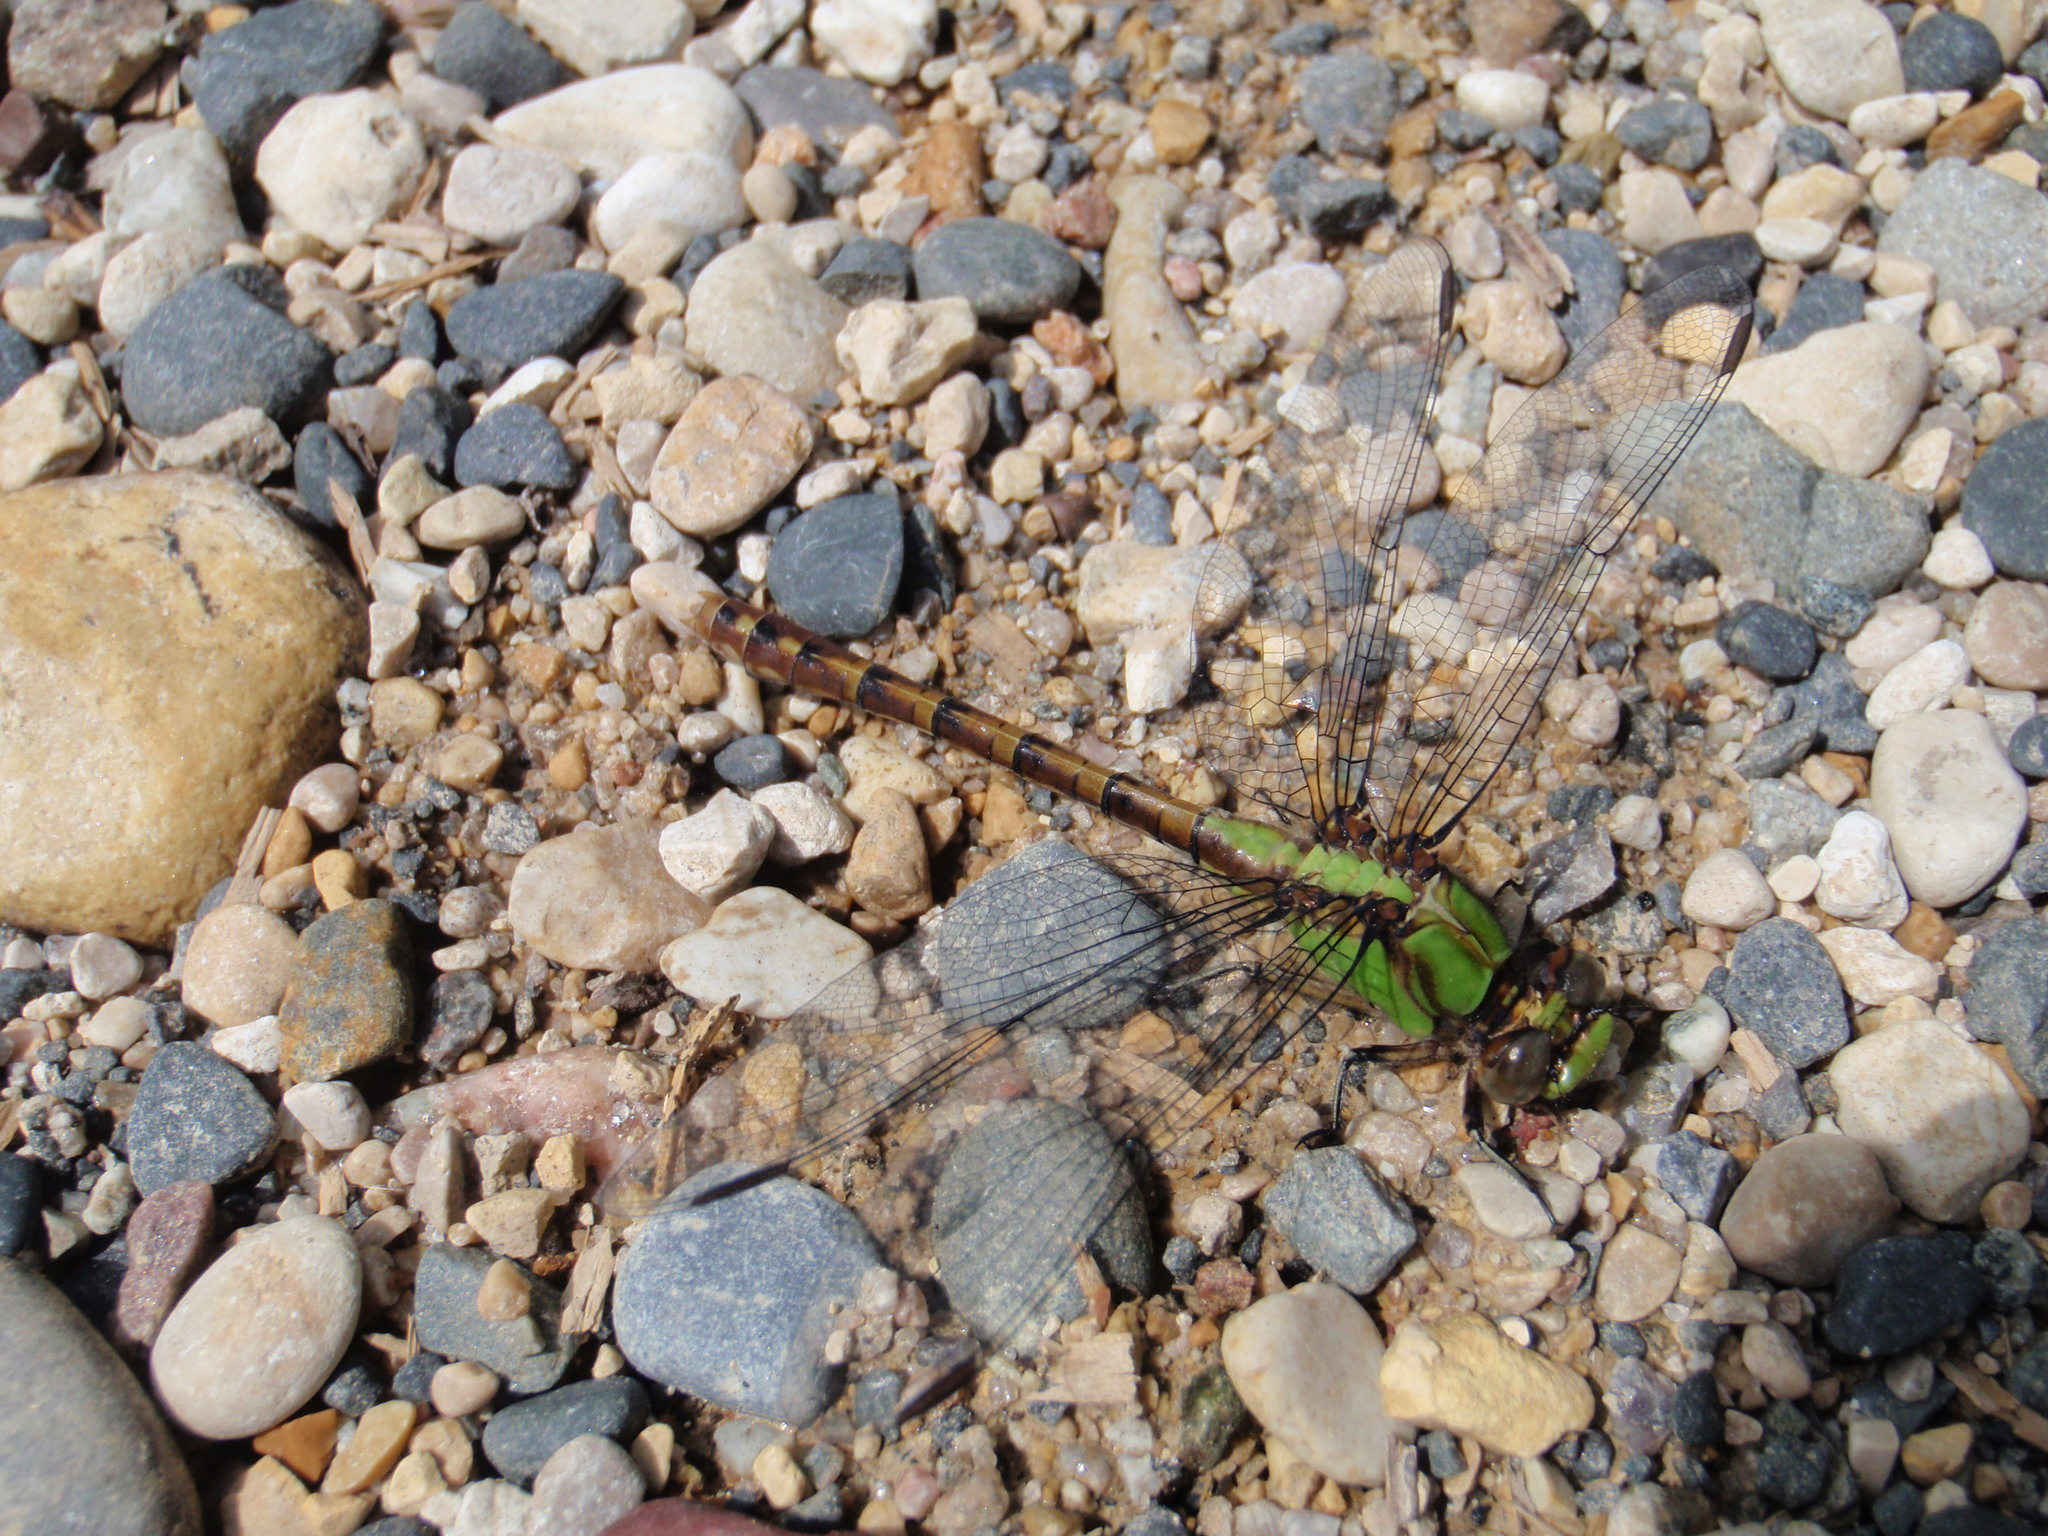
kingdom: Animalia
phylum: Arthropoda
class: Insecta
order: Odonata
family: Gomphidae
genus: Ophiogomphus
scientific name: Ophiogomphus rupinsulensis
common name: Rusty snaketail
